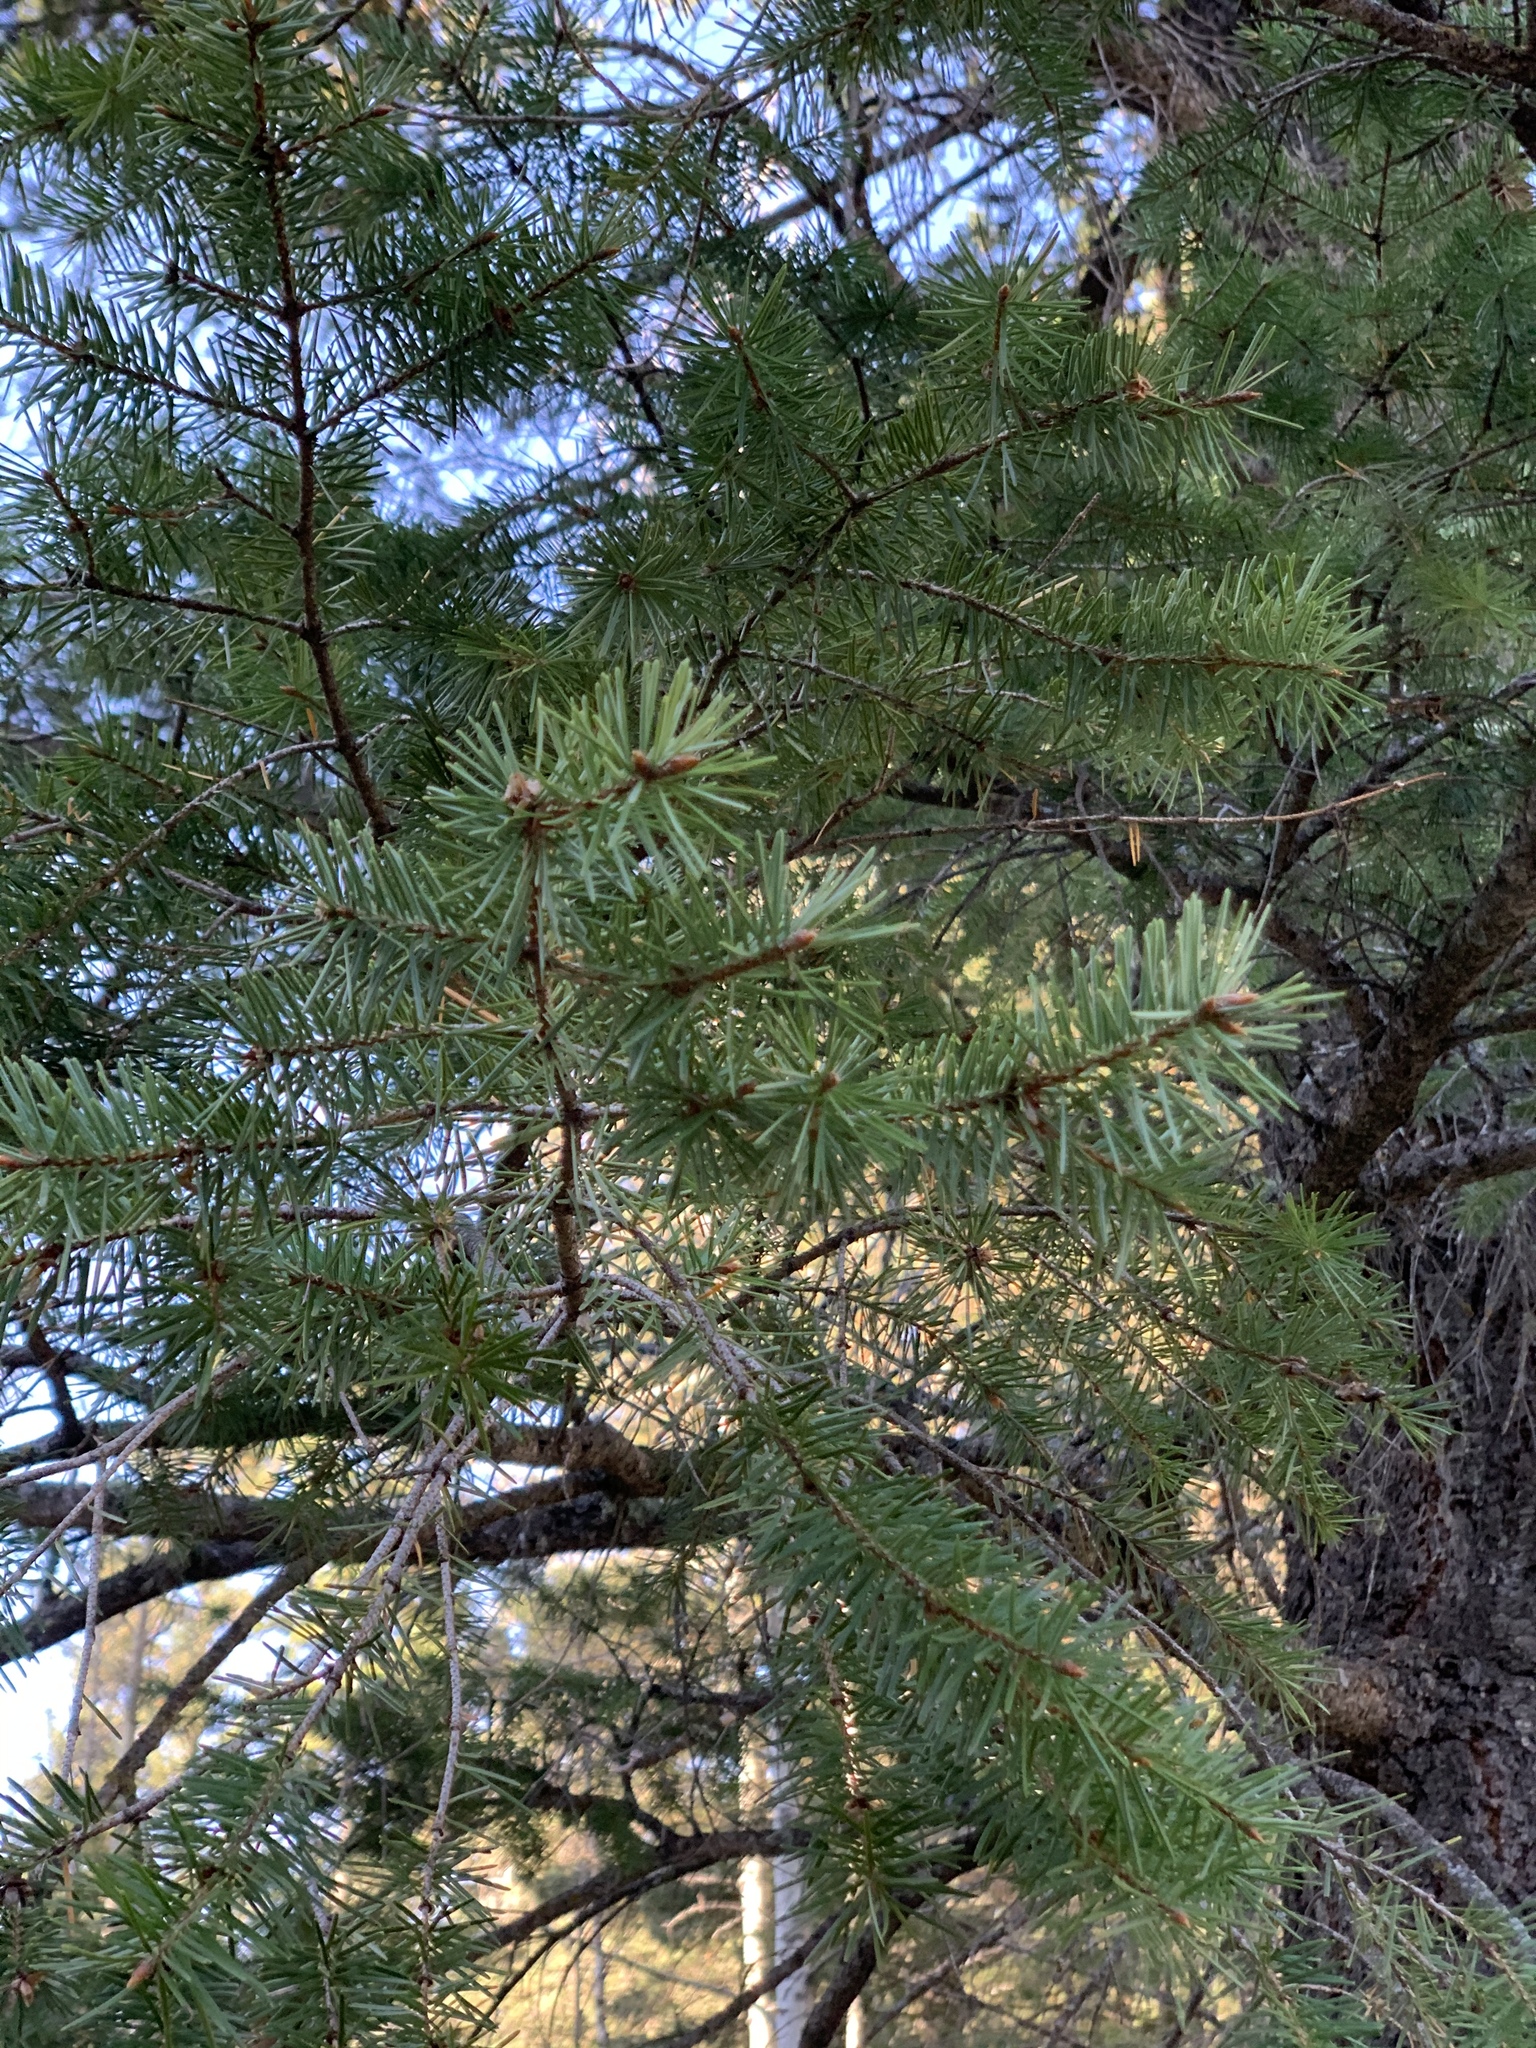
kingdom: Plantae
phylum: Tracheophyta
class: Pinopsida
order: Pinales
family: Pinaceae
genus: Pseudotsuga
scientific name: Pseudotsuga menziesii
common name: Douglas fir
